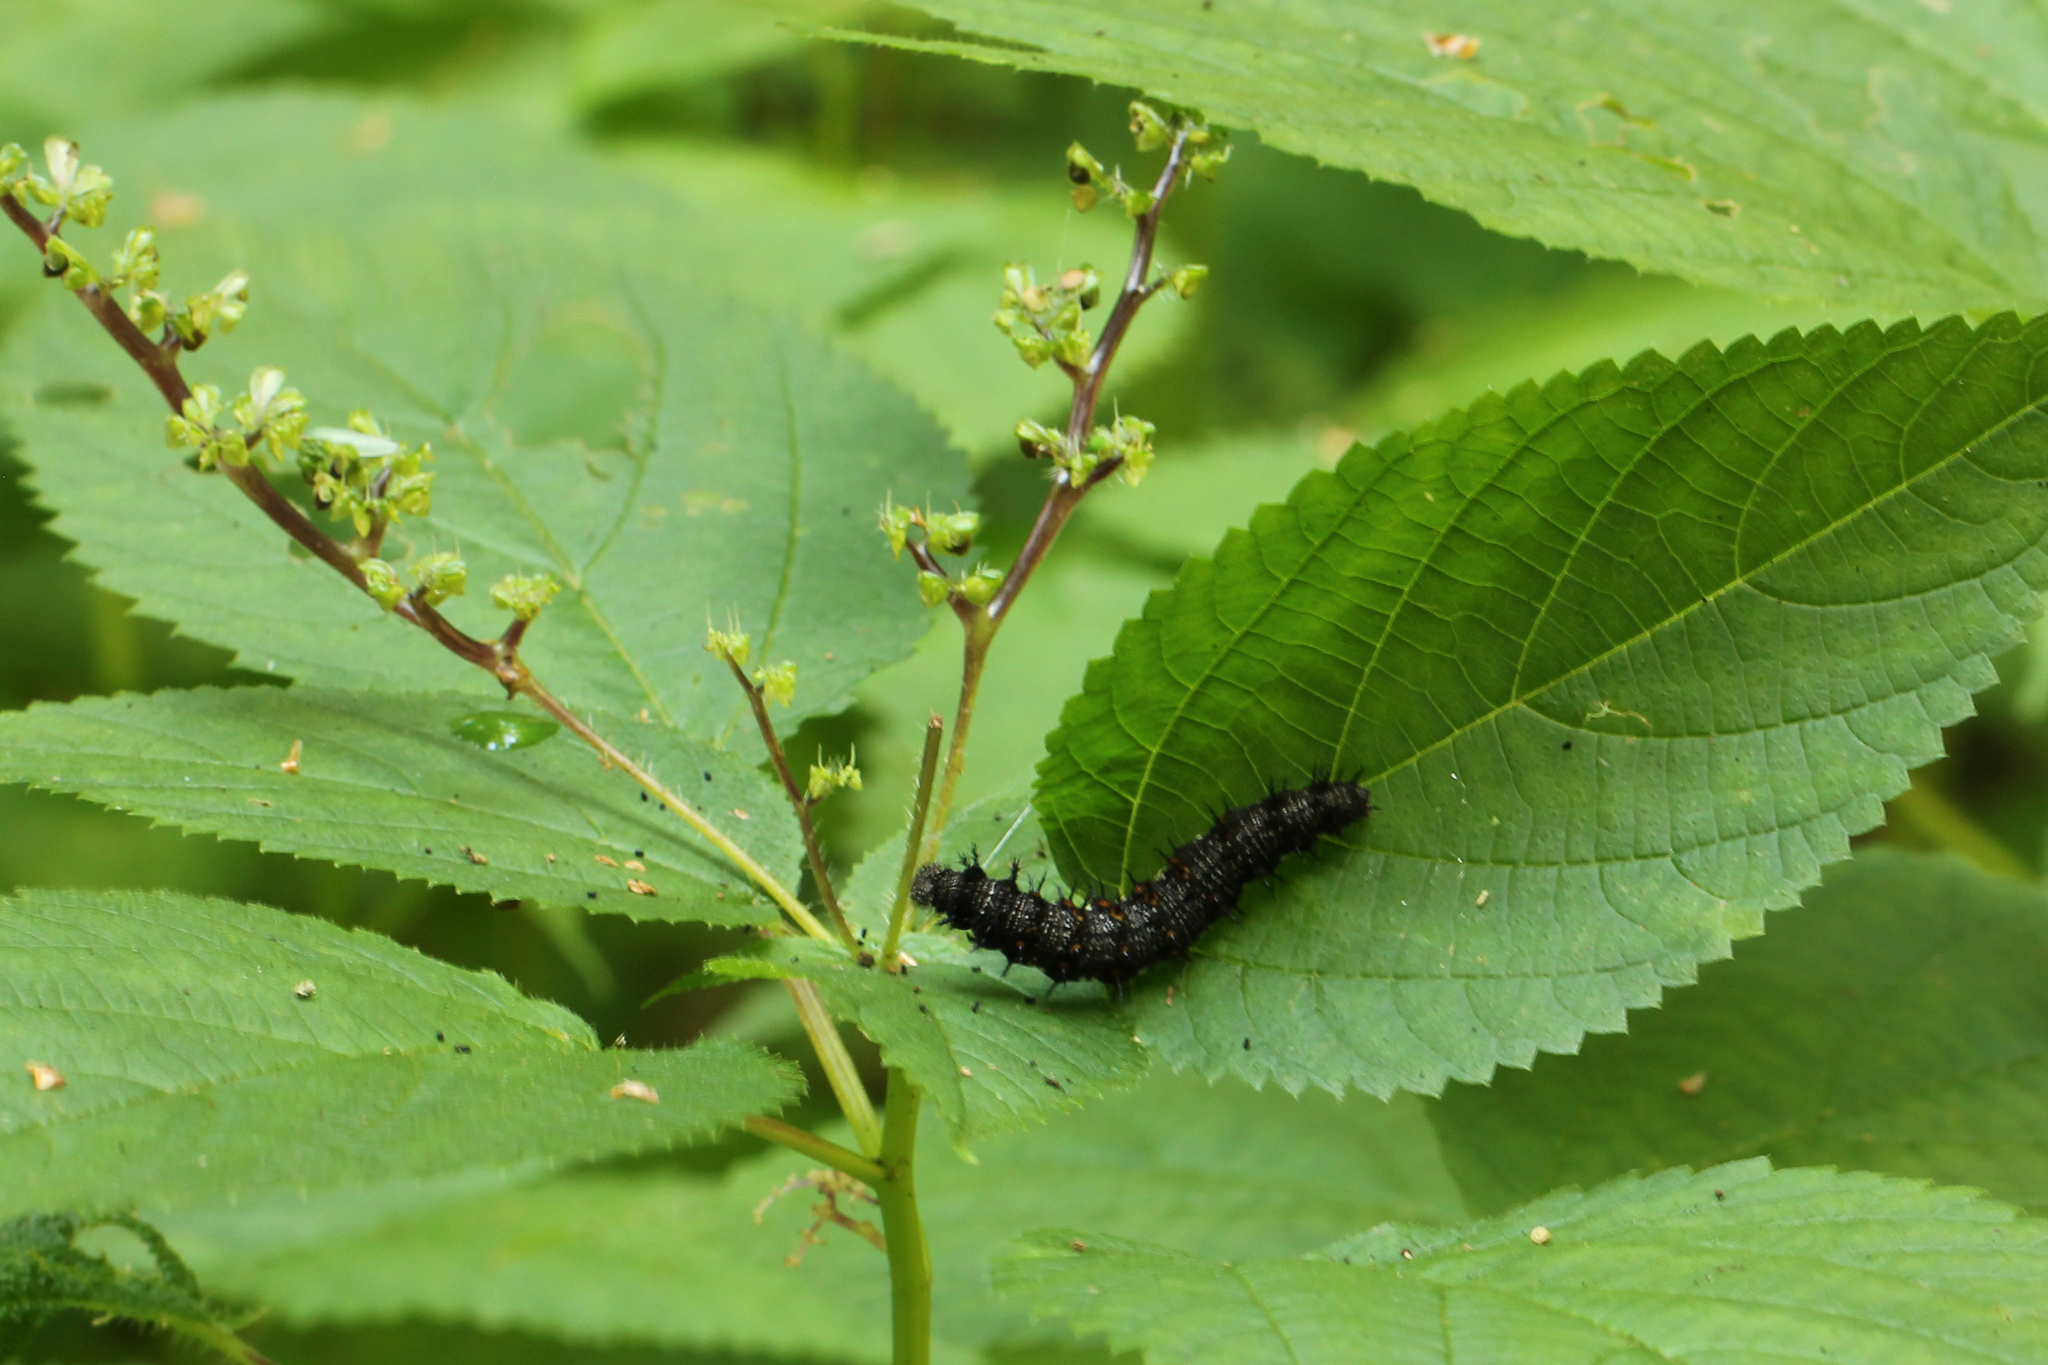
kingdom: Animalia
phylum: Arthropoda
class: Insecta
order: Lepidoptera
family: Nymphalidae
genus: Vanessa
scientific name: Vanessa atalanta
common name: Red admiral
